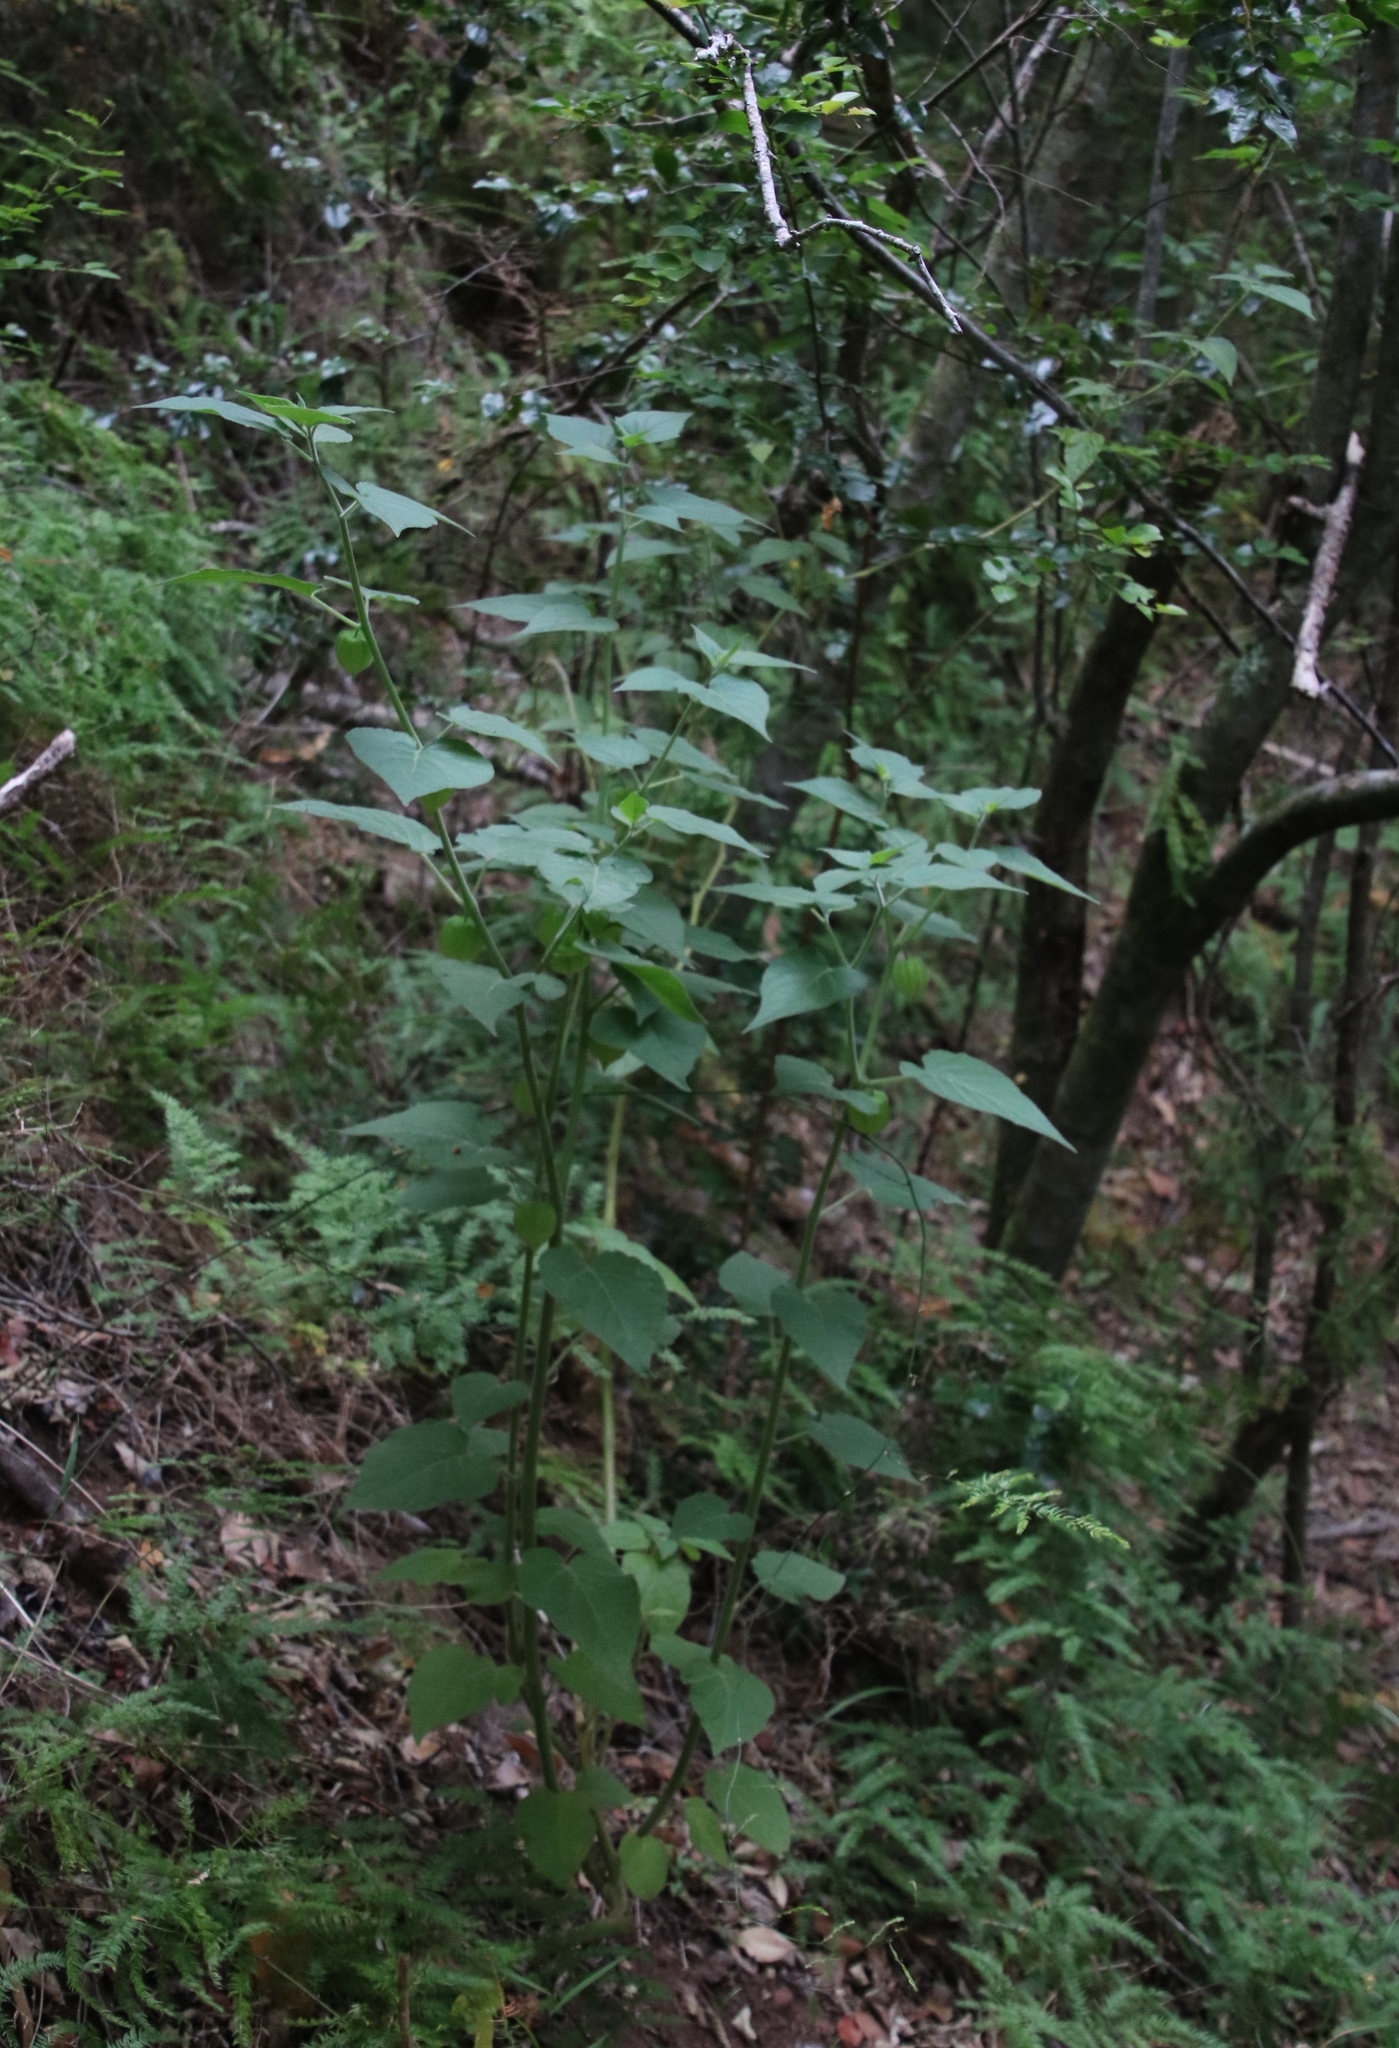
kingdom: Plantae
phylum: Tracheophyta
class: Magnoliopsida
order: Malpighiales
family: Euphorbiaceae
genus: Homalanthus
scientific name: Homalanthus populifolius
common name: Queensland poplar
